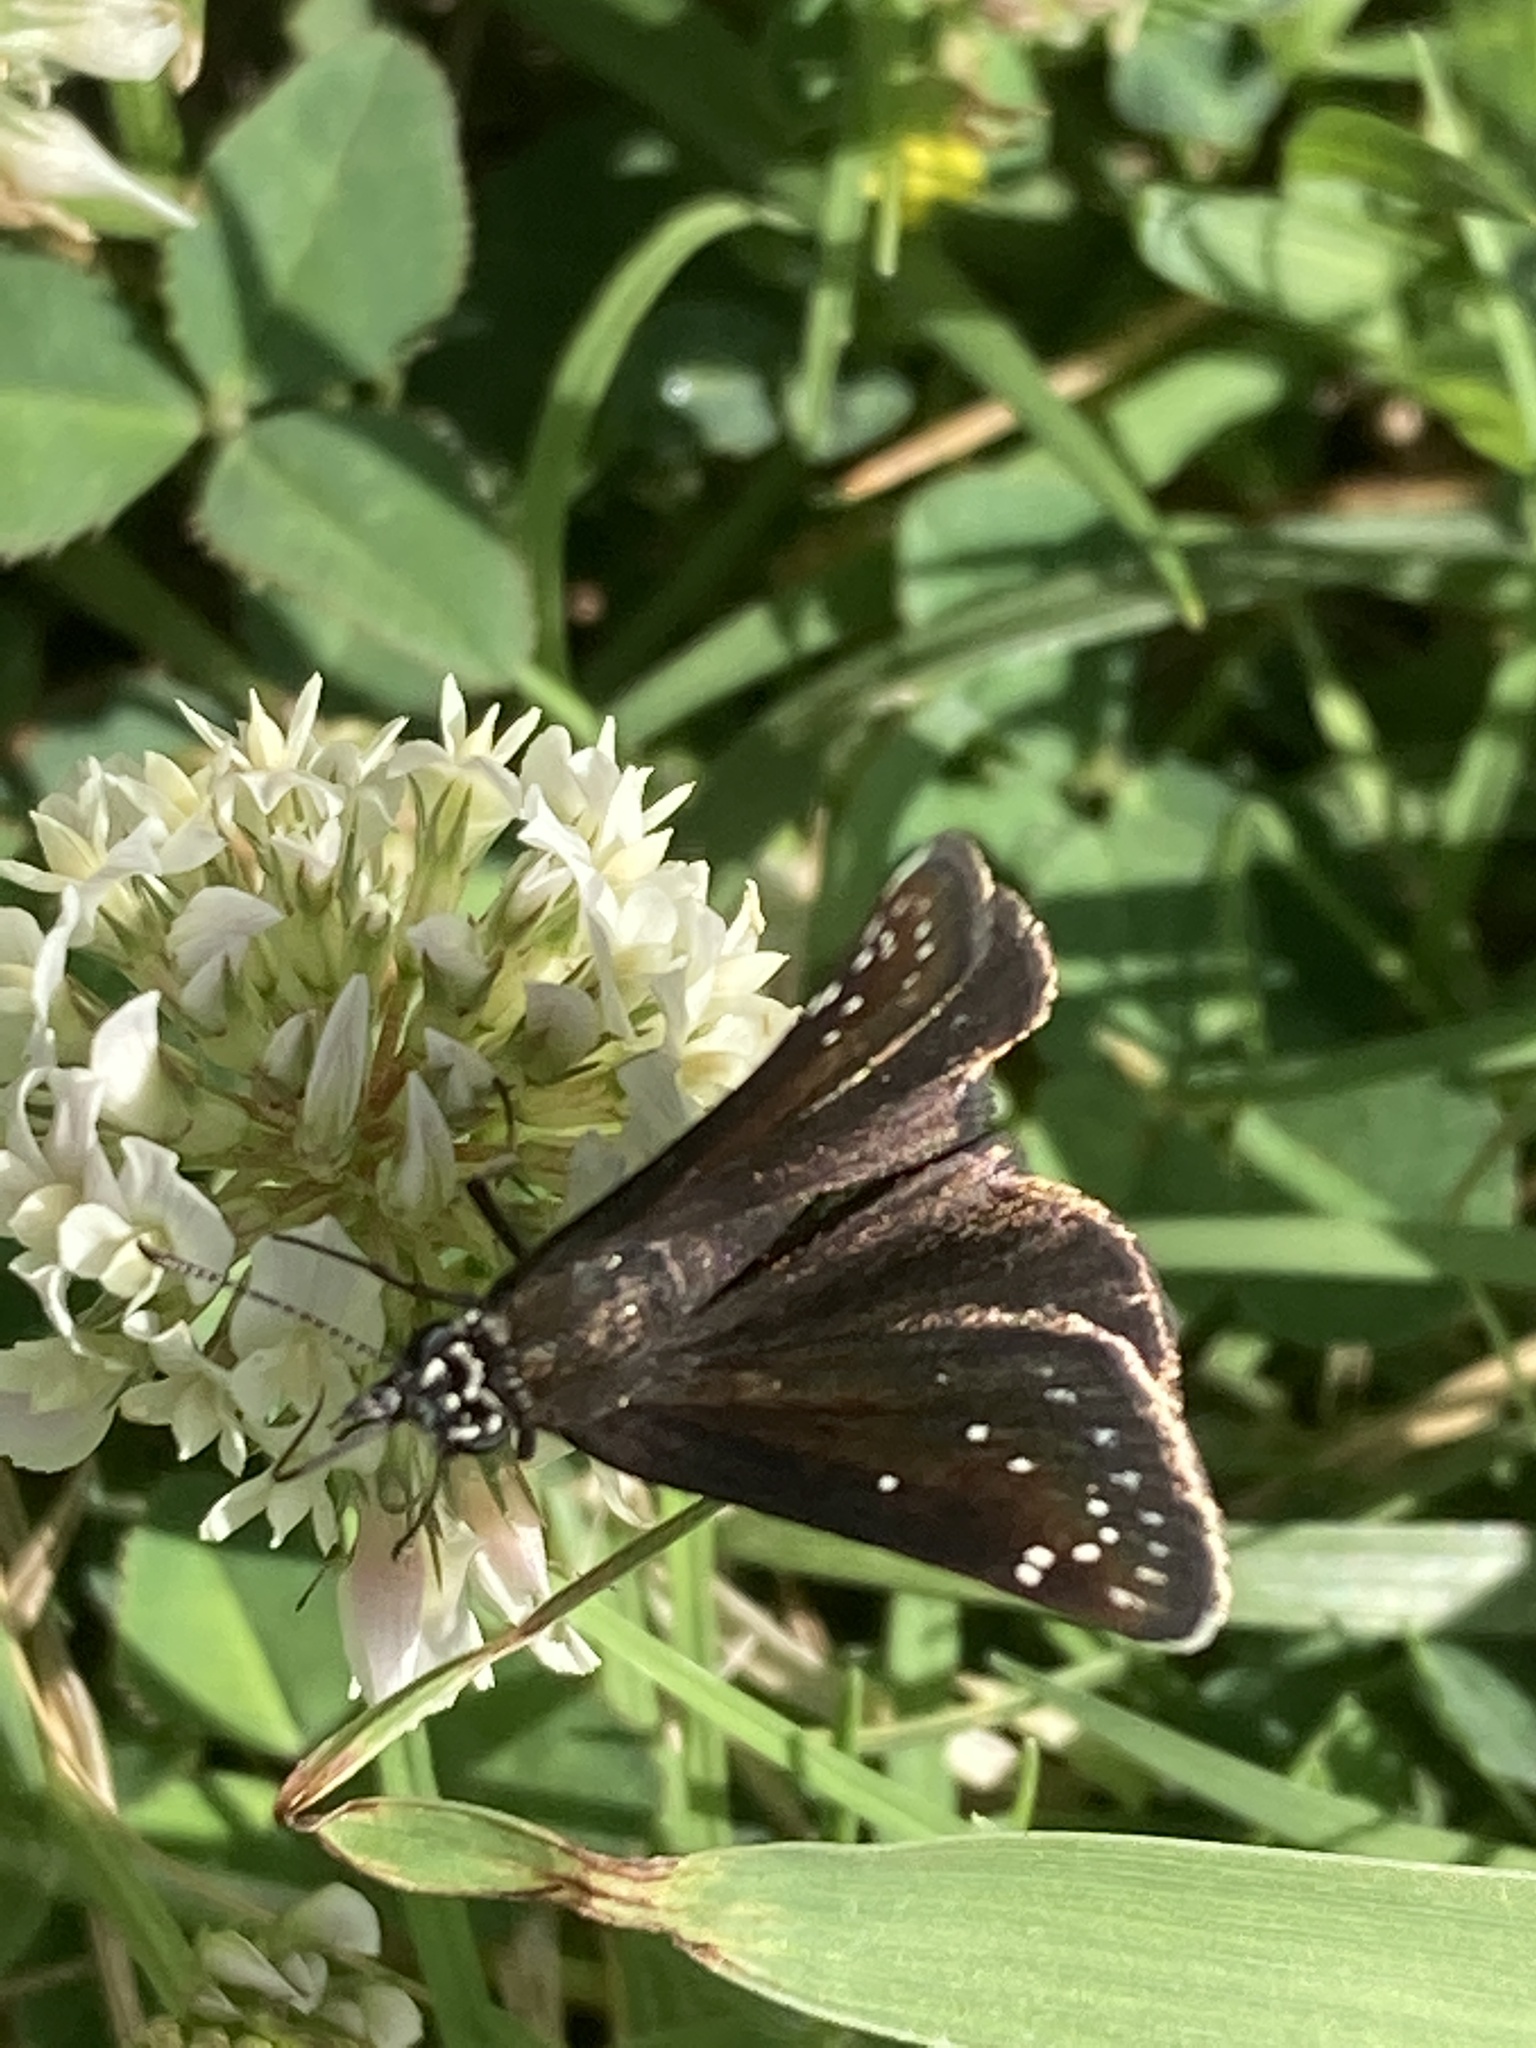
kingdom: Animalia
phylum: Arthropoda
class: Insecta
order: Lepidoptera
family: Hesperiidae
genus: Pholisora
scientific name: Pholisora catullus
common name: Common sootywing
